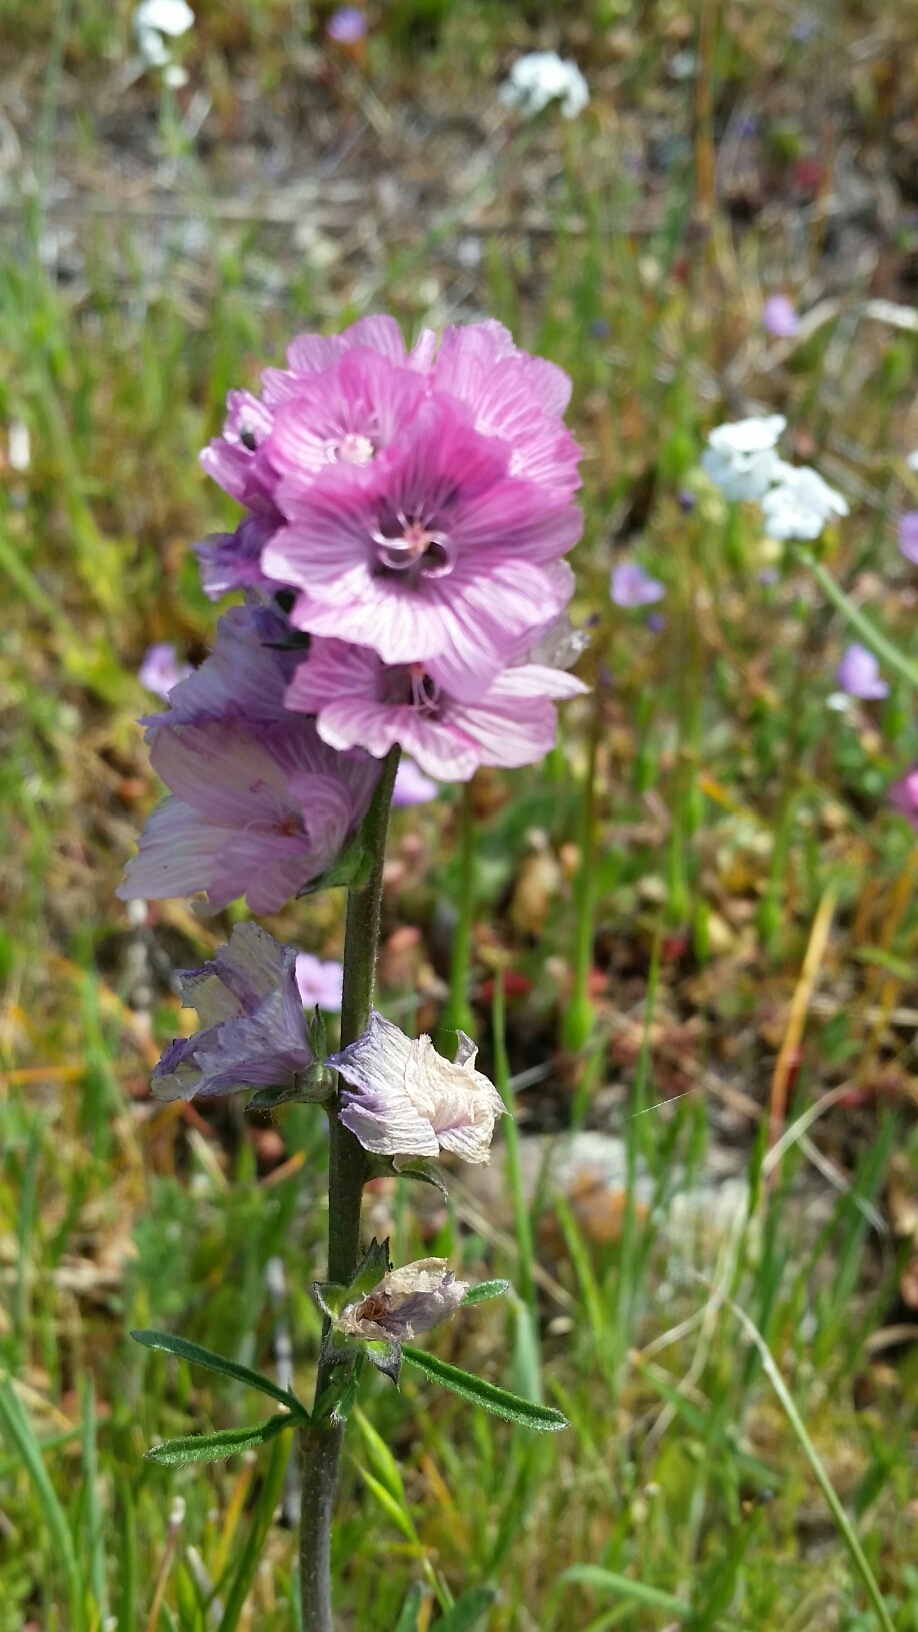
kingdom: Plantae
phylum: Tracheophyta
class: Magnoliopsida
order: Malvales
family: Malvaceae
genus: Sidalcea
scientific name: Sidalcea malviflora
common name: Greek mallow
